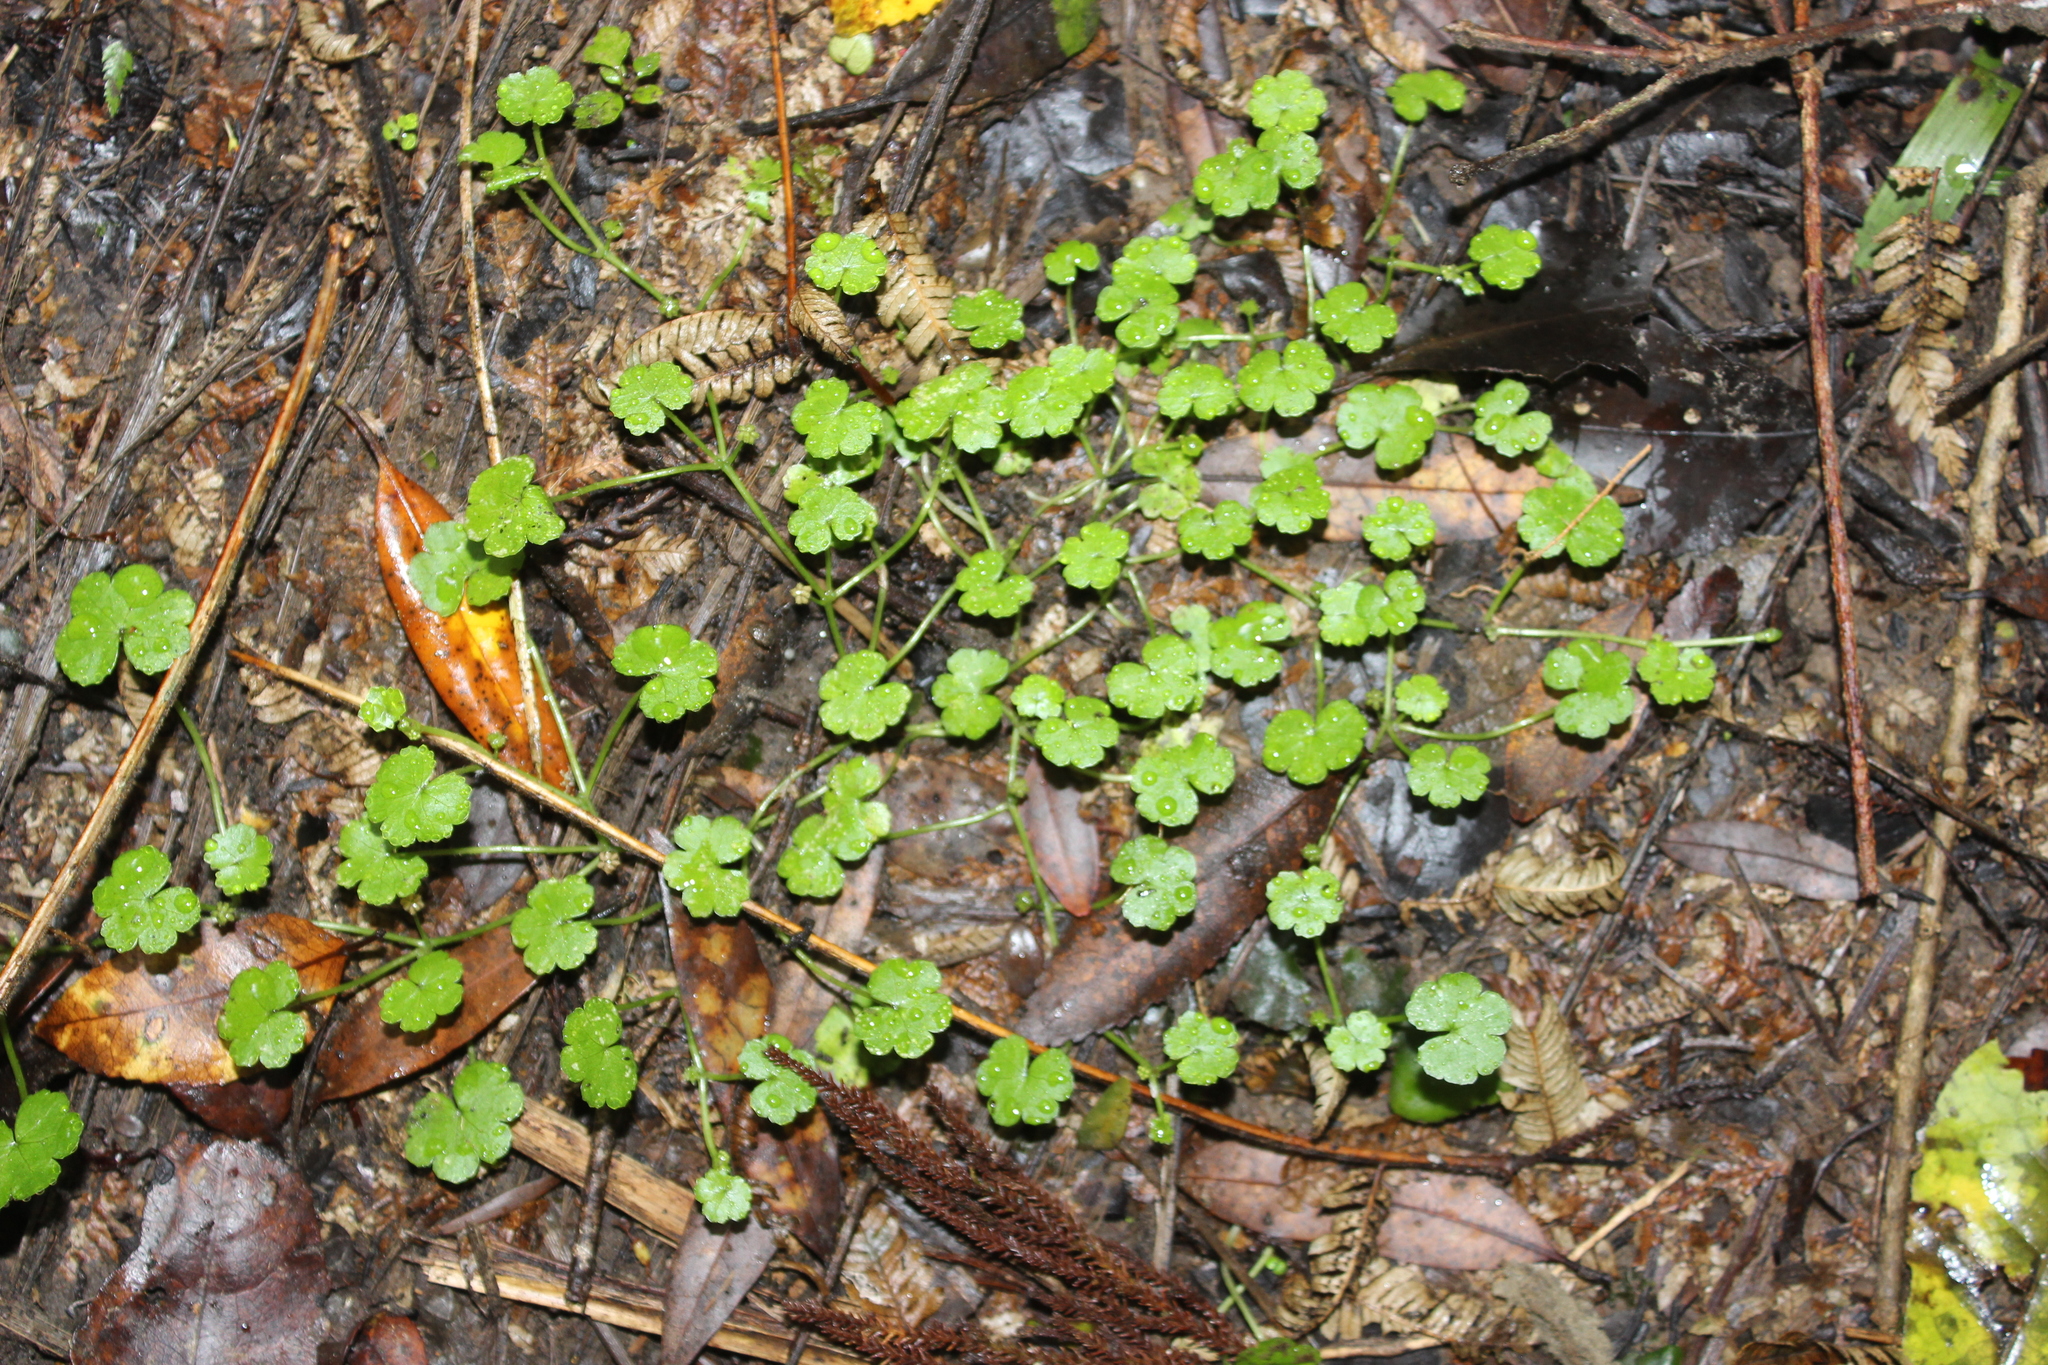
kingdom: Plantae
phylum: Tracheophyta
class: Magnoliopsida
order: Apiales
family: Araliaceae
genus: Hydrocotyle
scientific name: Hydrocotyle heteromeria
